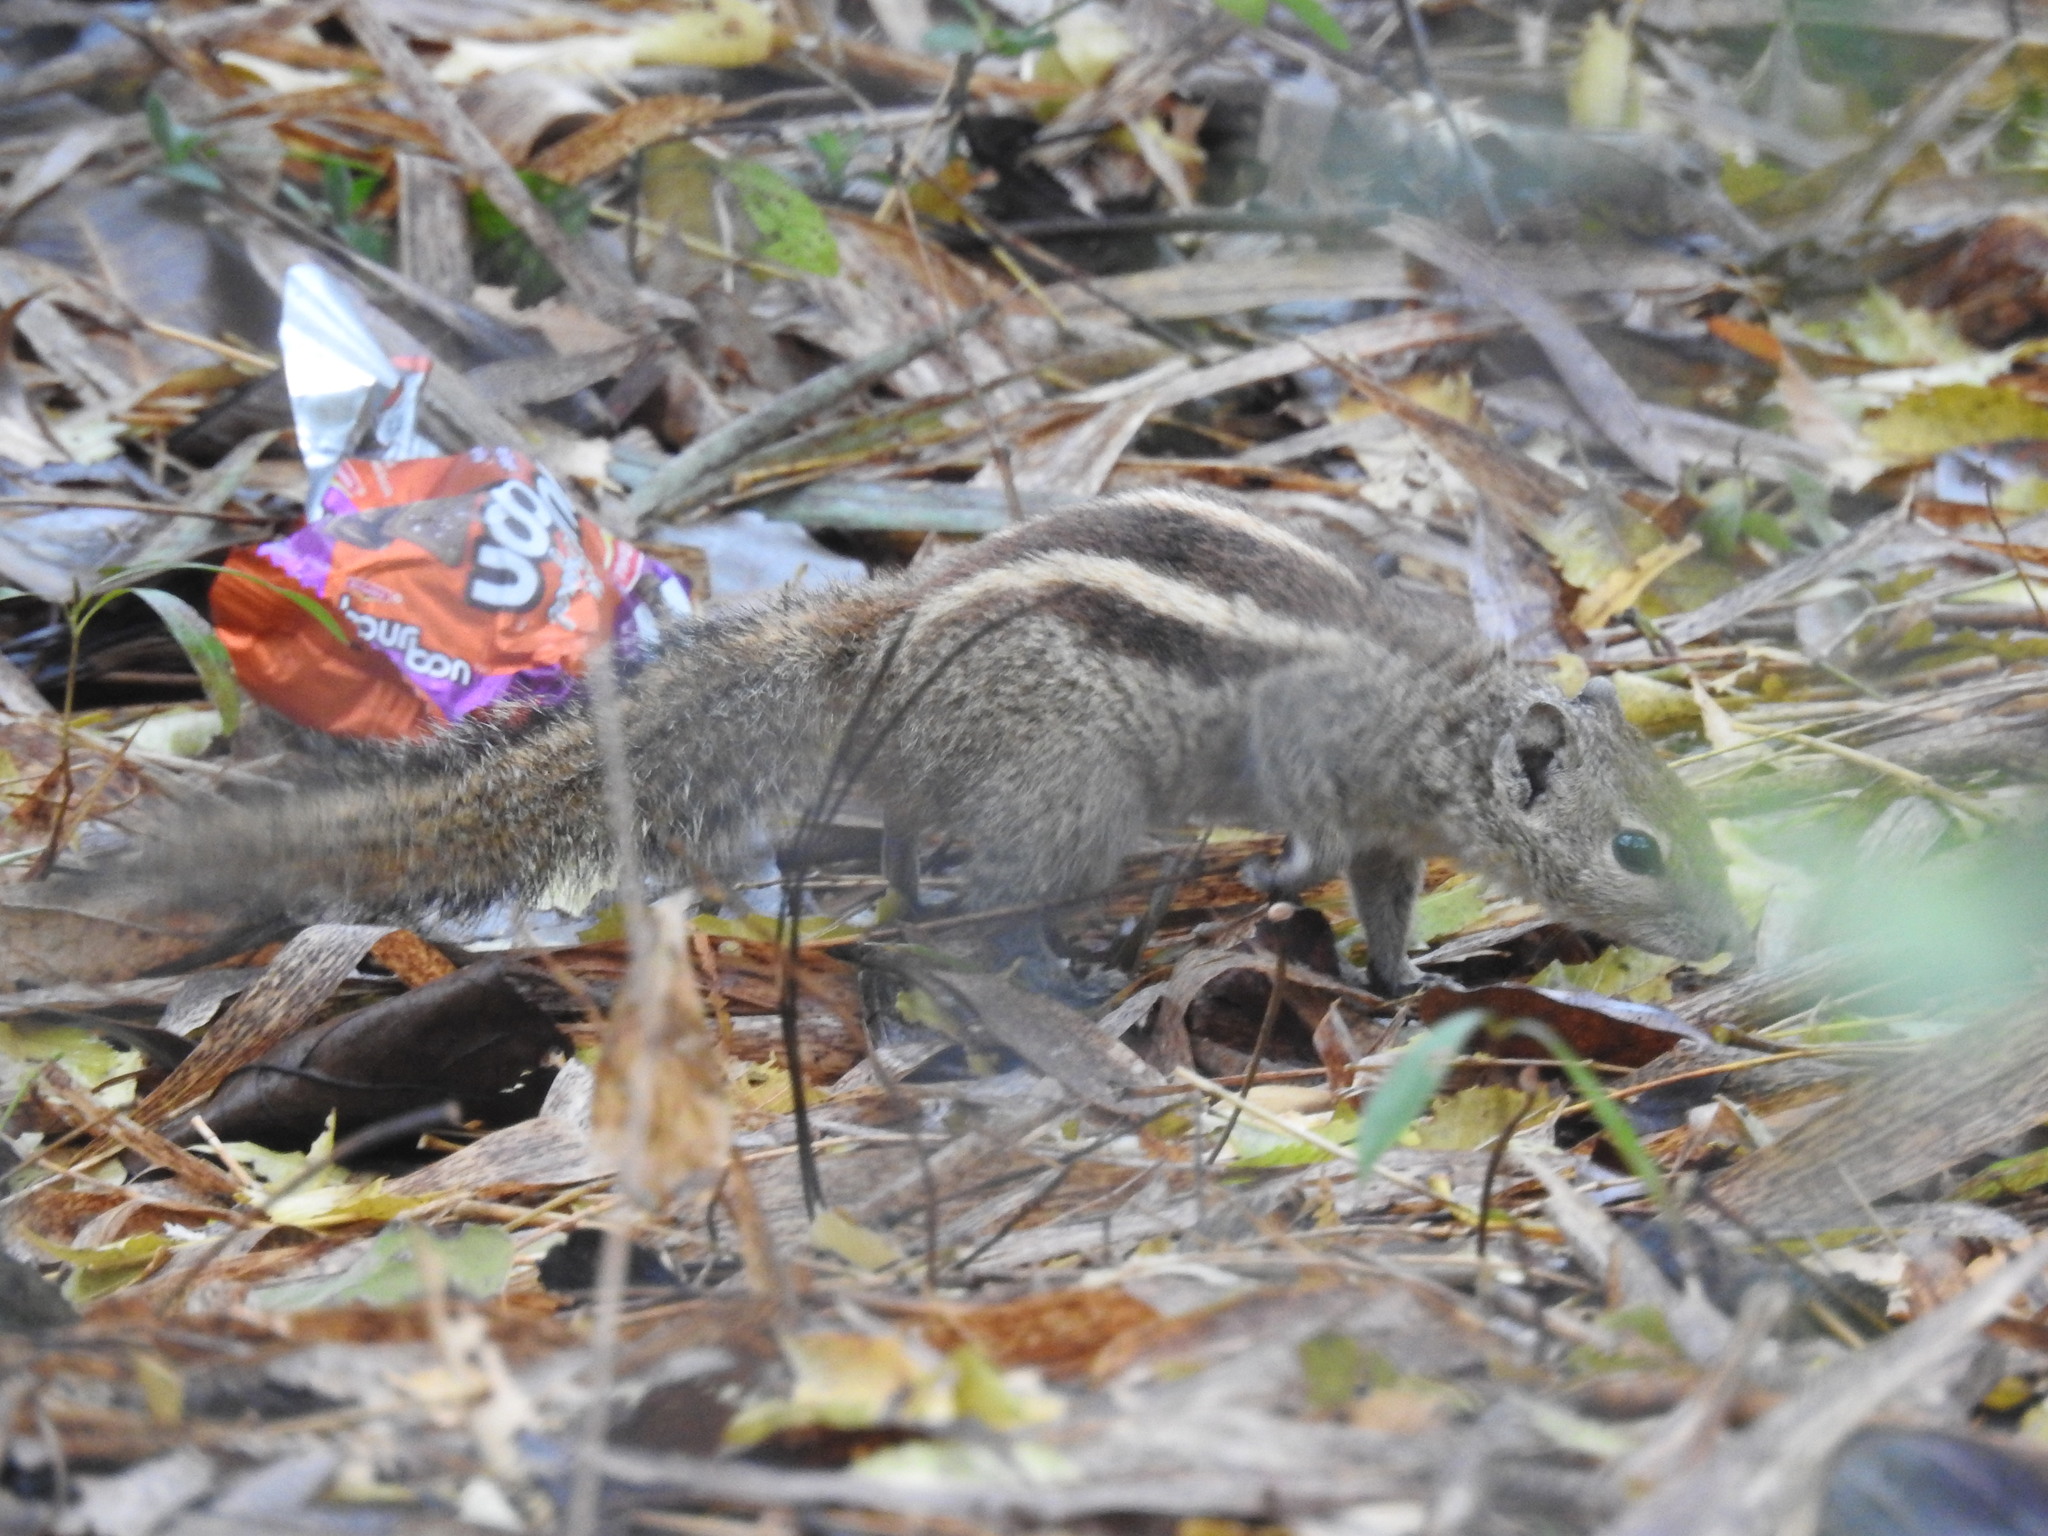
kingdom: Animalia
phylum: Chordata
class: Mammalia
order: Rodentia
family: Sciuridae
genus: Funambulus
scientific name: Funambulus palmarum
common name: Indian palm squirrel
